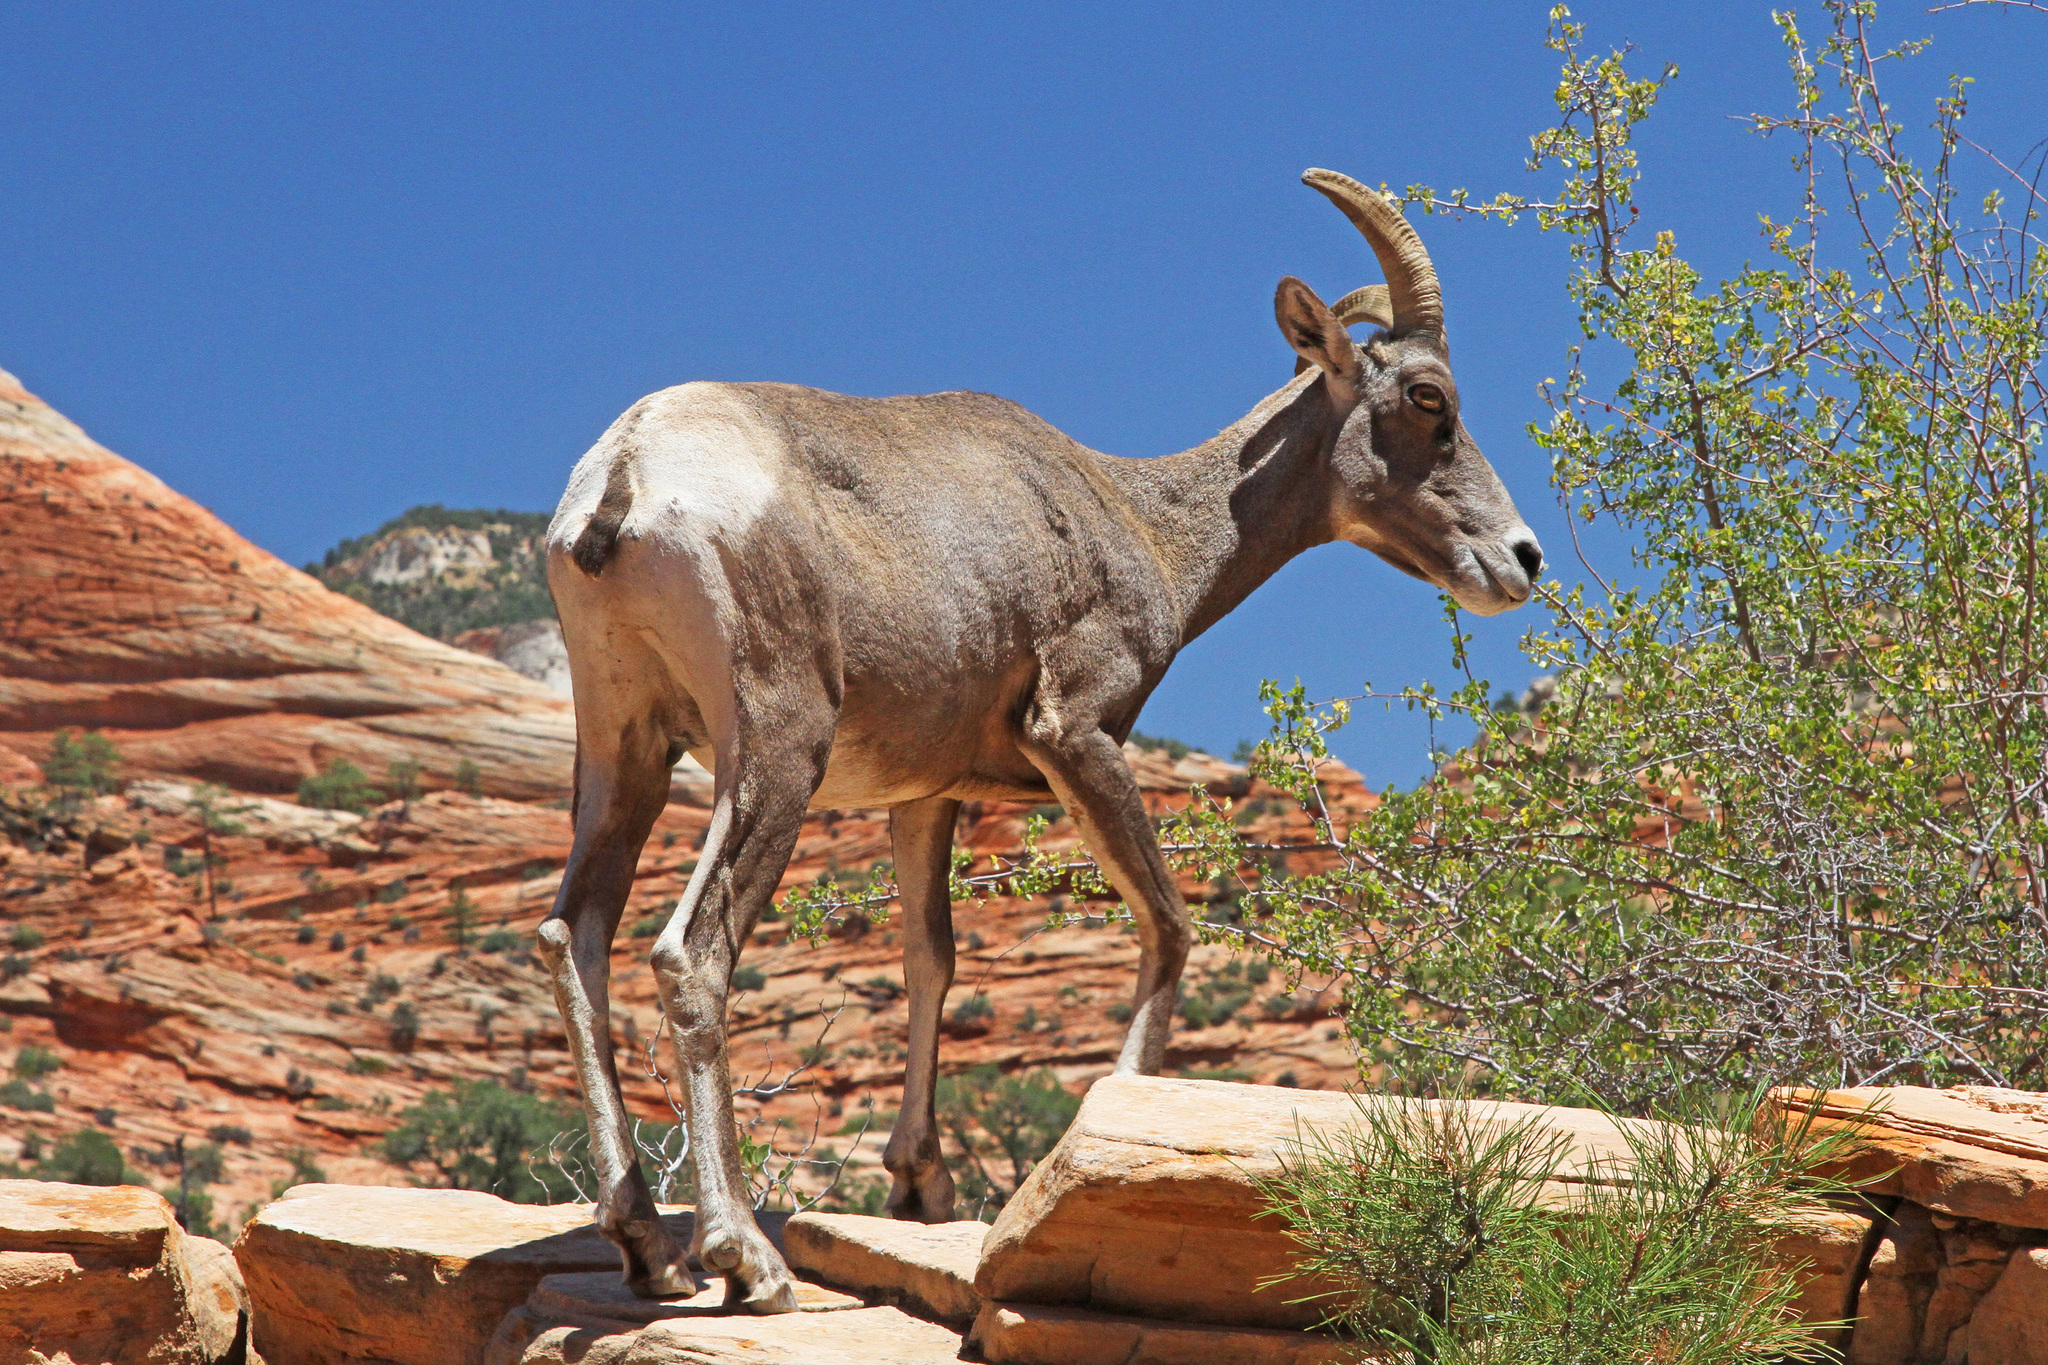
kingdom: Animalia
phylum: Chordata
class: Mammalia
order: Artiodactyla
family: Bovidae
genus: Ovis
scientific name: Ovis canadensis
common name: Bighorn sheep
